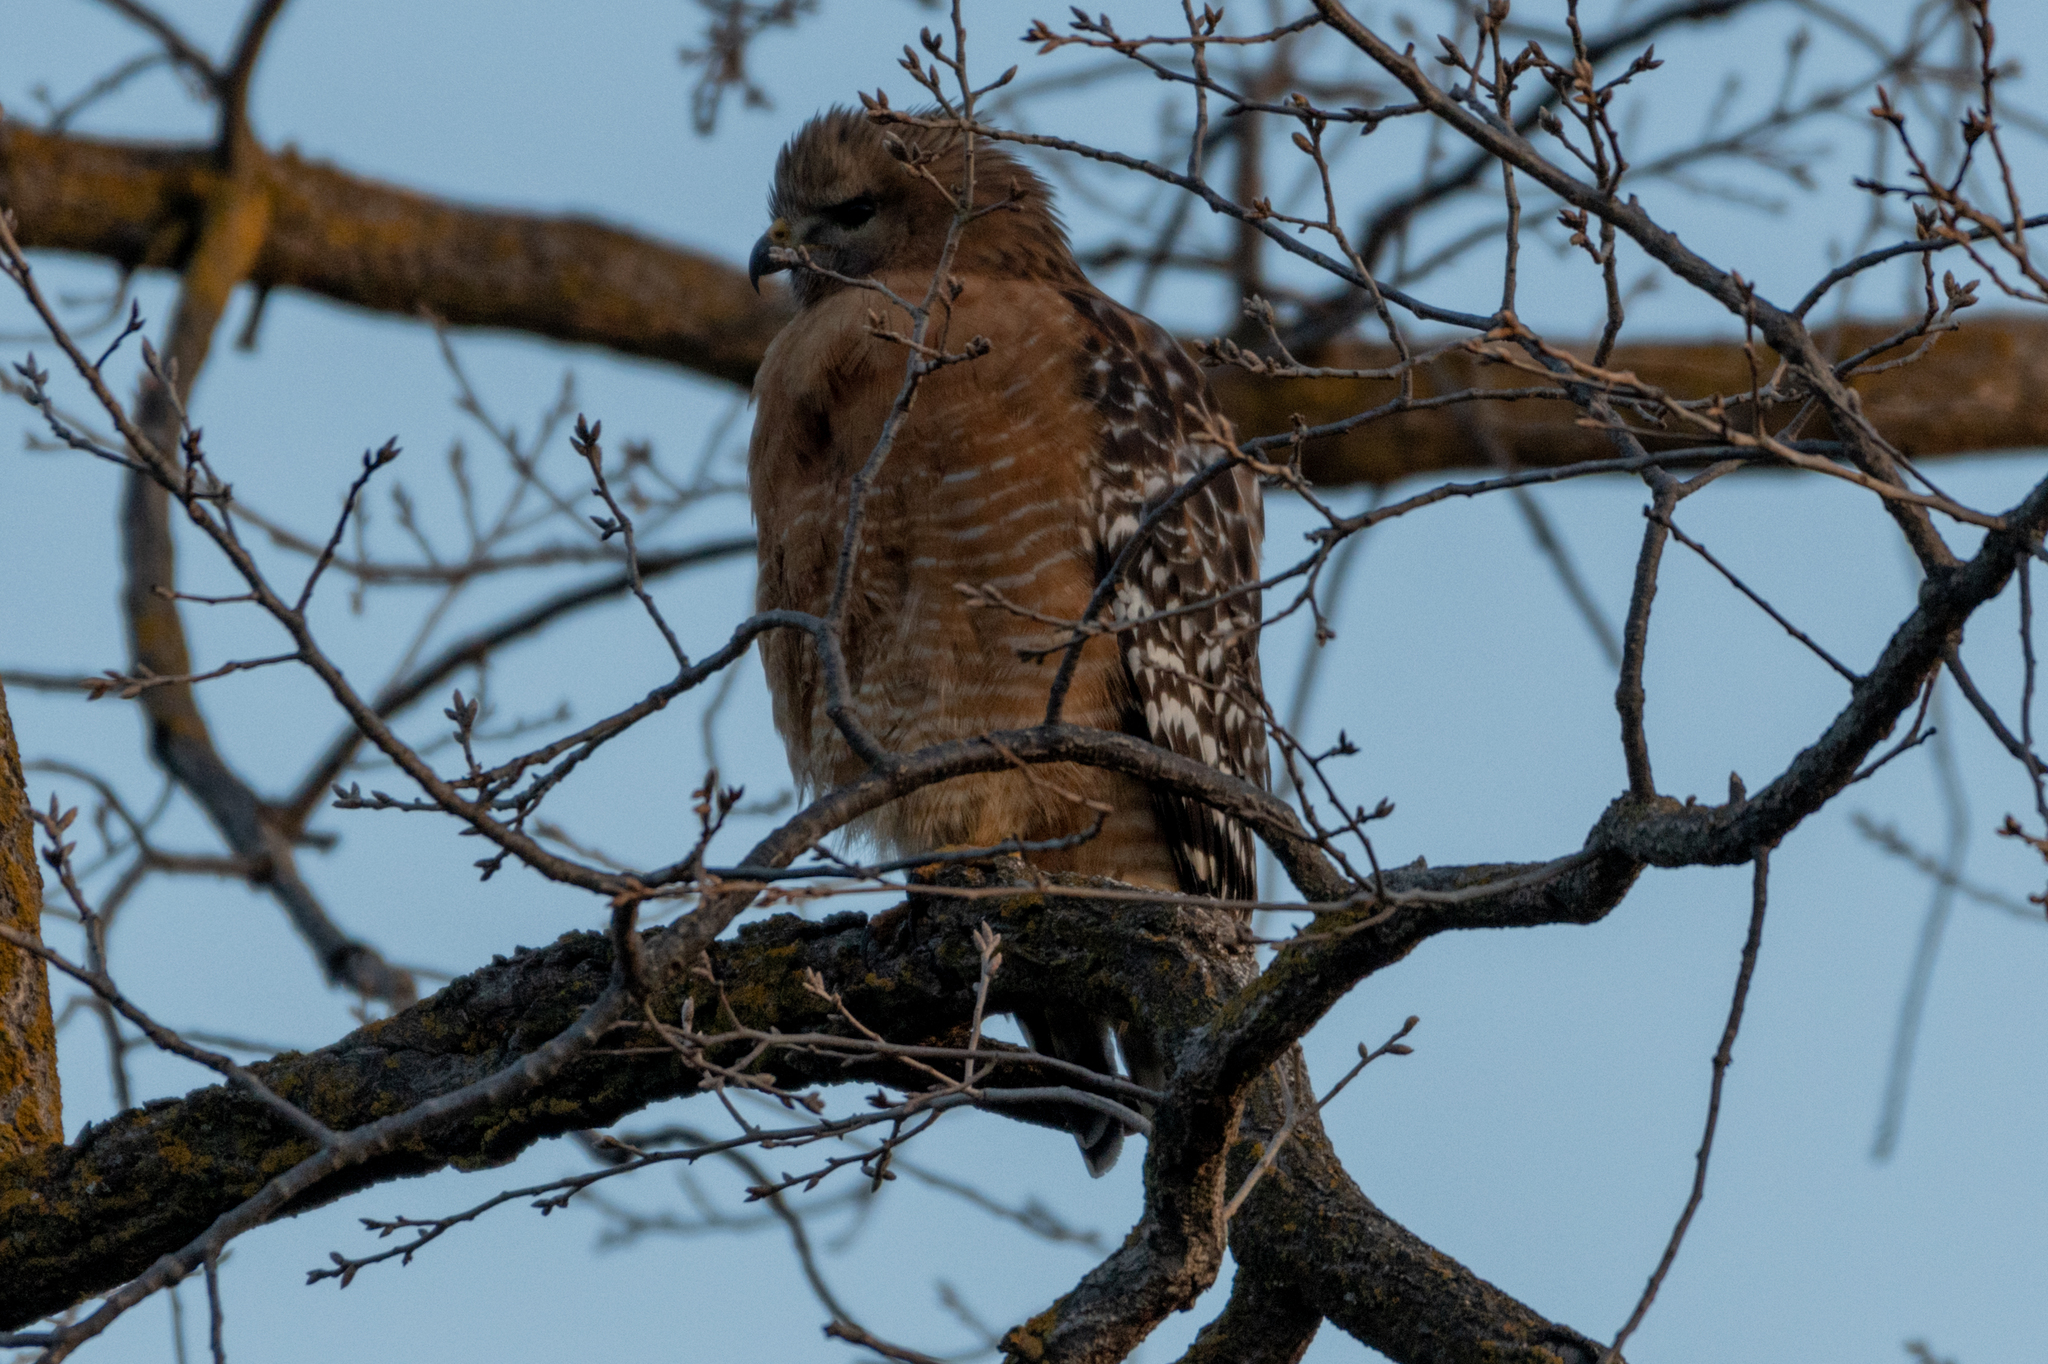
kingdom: Animalia
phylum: Chordata
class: Aves
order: Accipitriformes
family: Accipitridae
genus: Buteo
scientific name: Buteo lineatus
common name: Red-shouldered hawk
